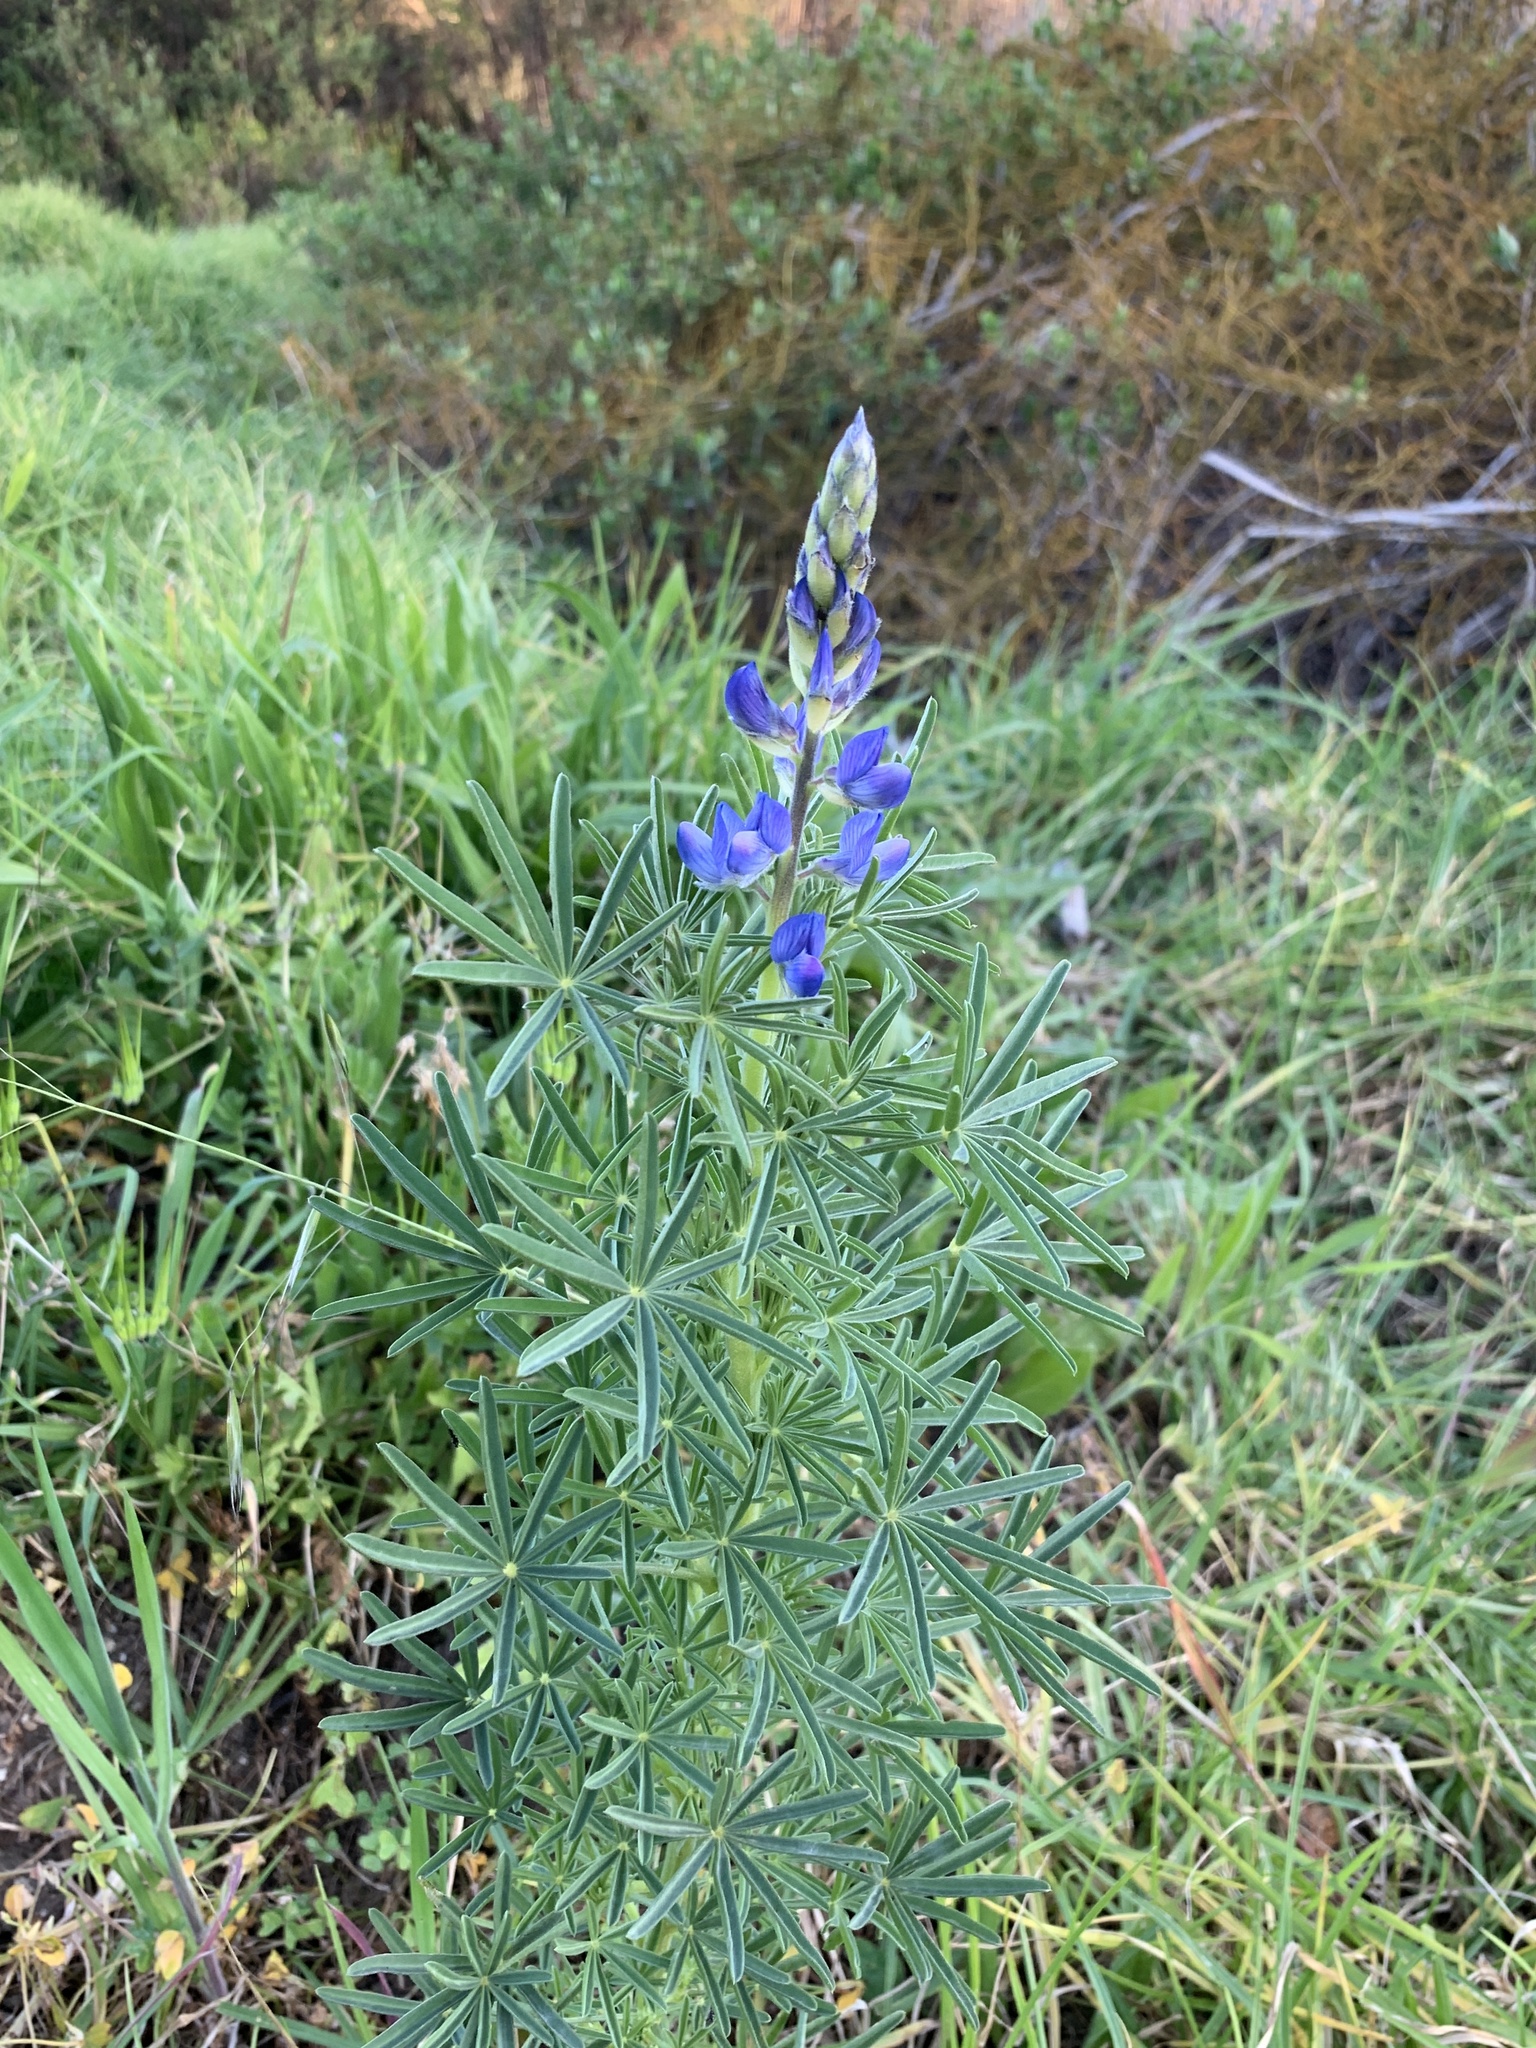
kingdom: Plantae
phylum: Tracheophyta
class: Magnoliopsida
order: Fabales
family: Fabaceae
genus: Lupinus
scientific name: Lupinus angustifolius
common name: Narrow-leaved lupin
